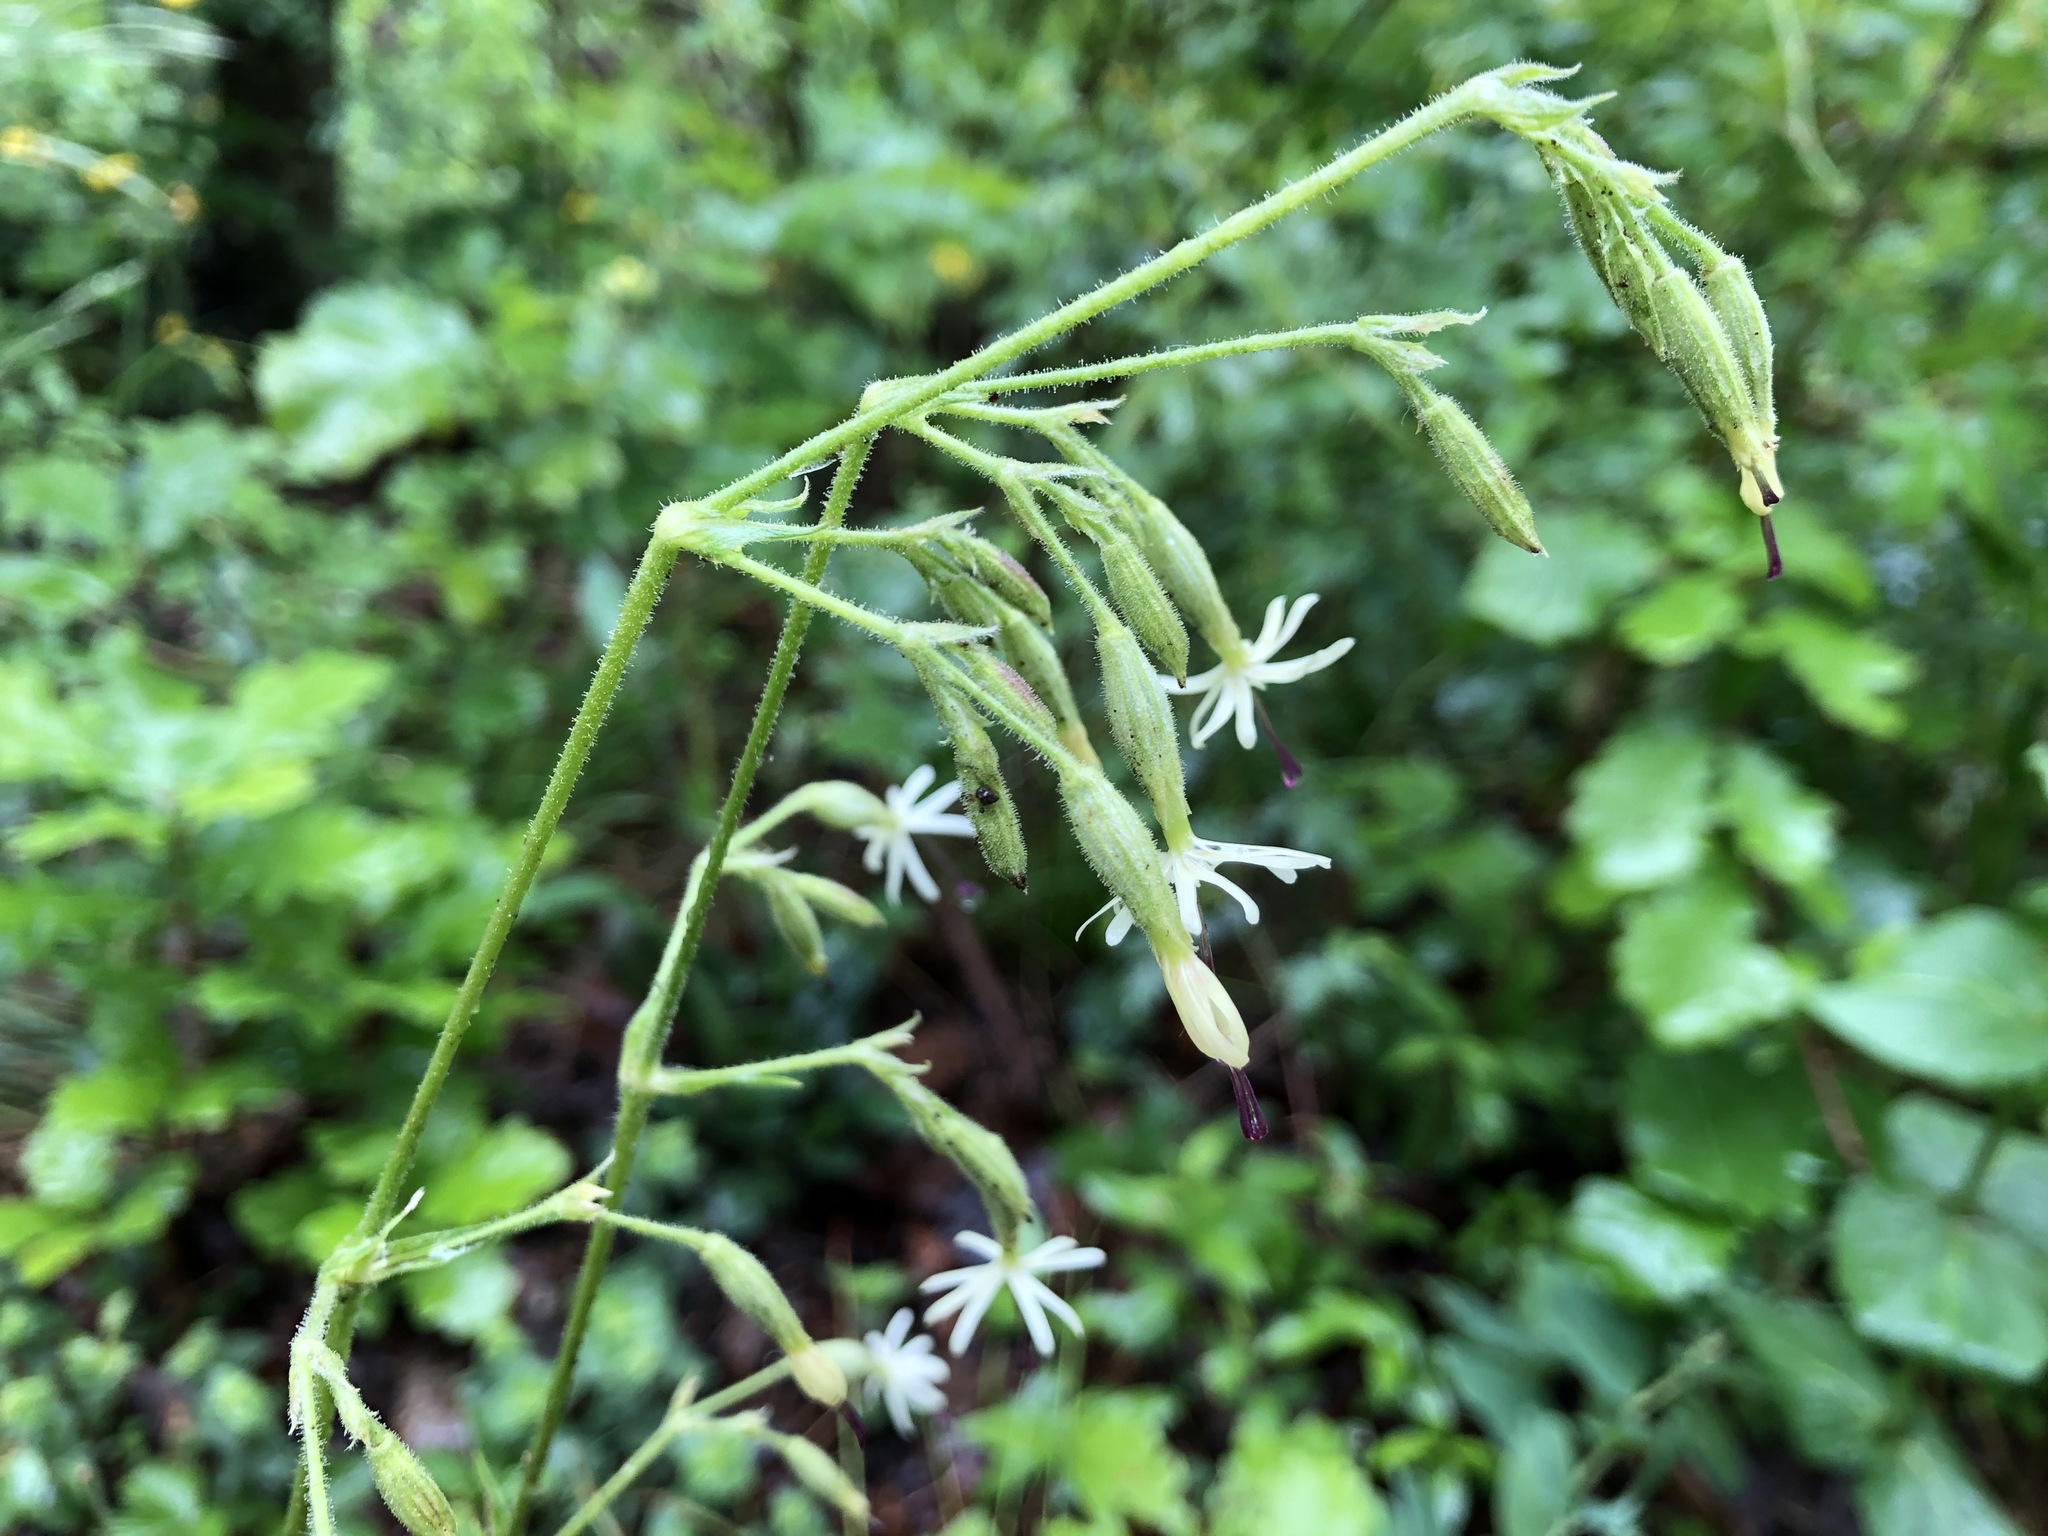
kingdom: Plantae
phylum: Tracheophyta
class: Magnoliopsida
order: Caryophyllales
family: Caryophyllaceae
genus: Silene
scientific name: Silene nutans
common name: Nottingham catchfly
